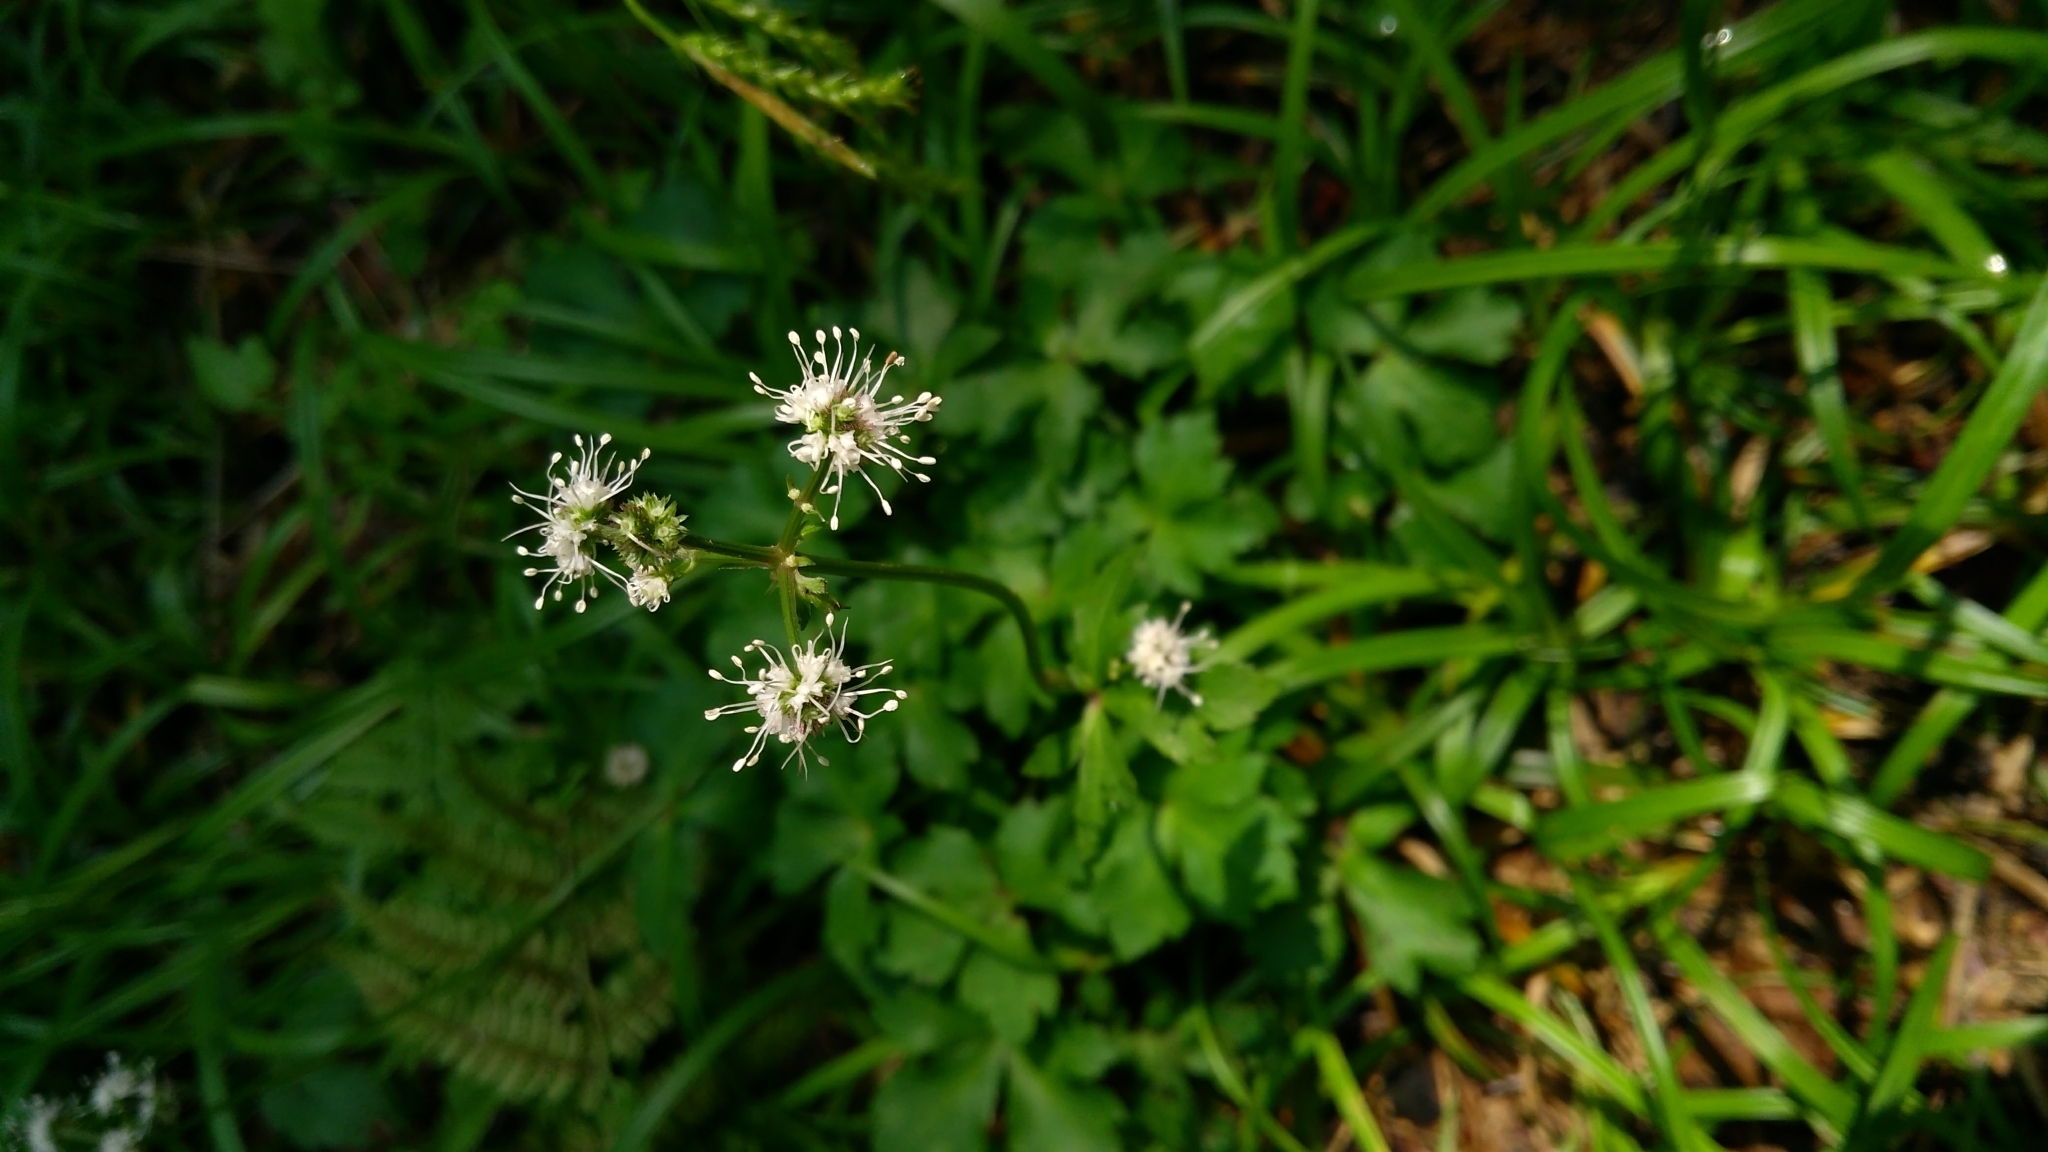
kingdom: Plantae
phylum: Tracheophyta
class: Magnoliopsida
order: Apiales
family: Apiaceae
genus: Sanicula
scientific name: Sanicula europaea
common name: Sanicle
